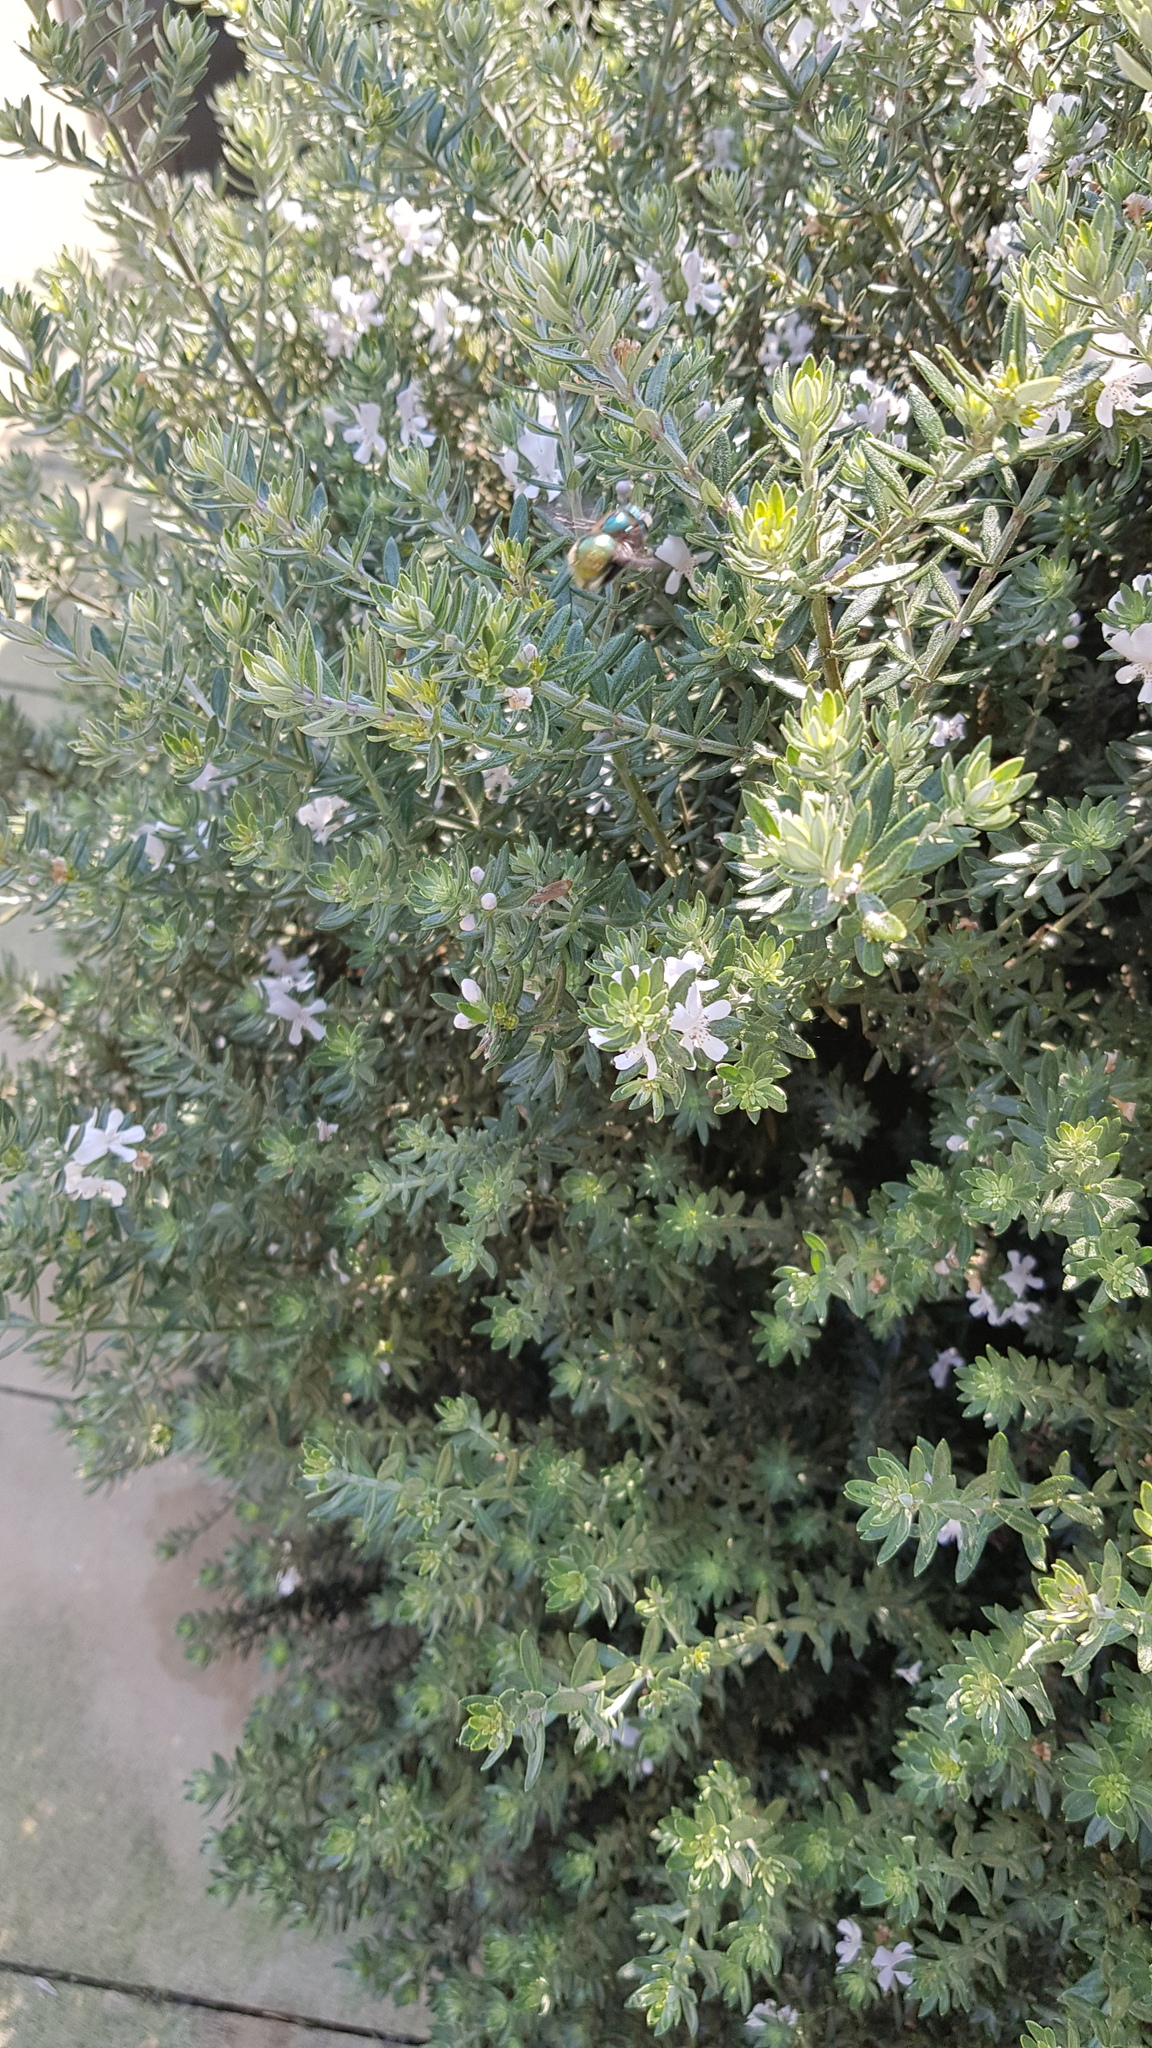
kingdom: Animalia
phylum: Arthropoda
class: Insecta
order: Hymenoptera
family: Apidae
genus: Xylocopa
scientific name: Xylocopa aeratus
